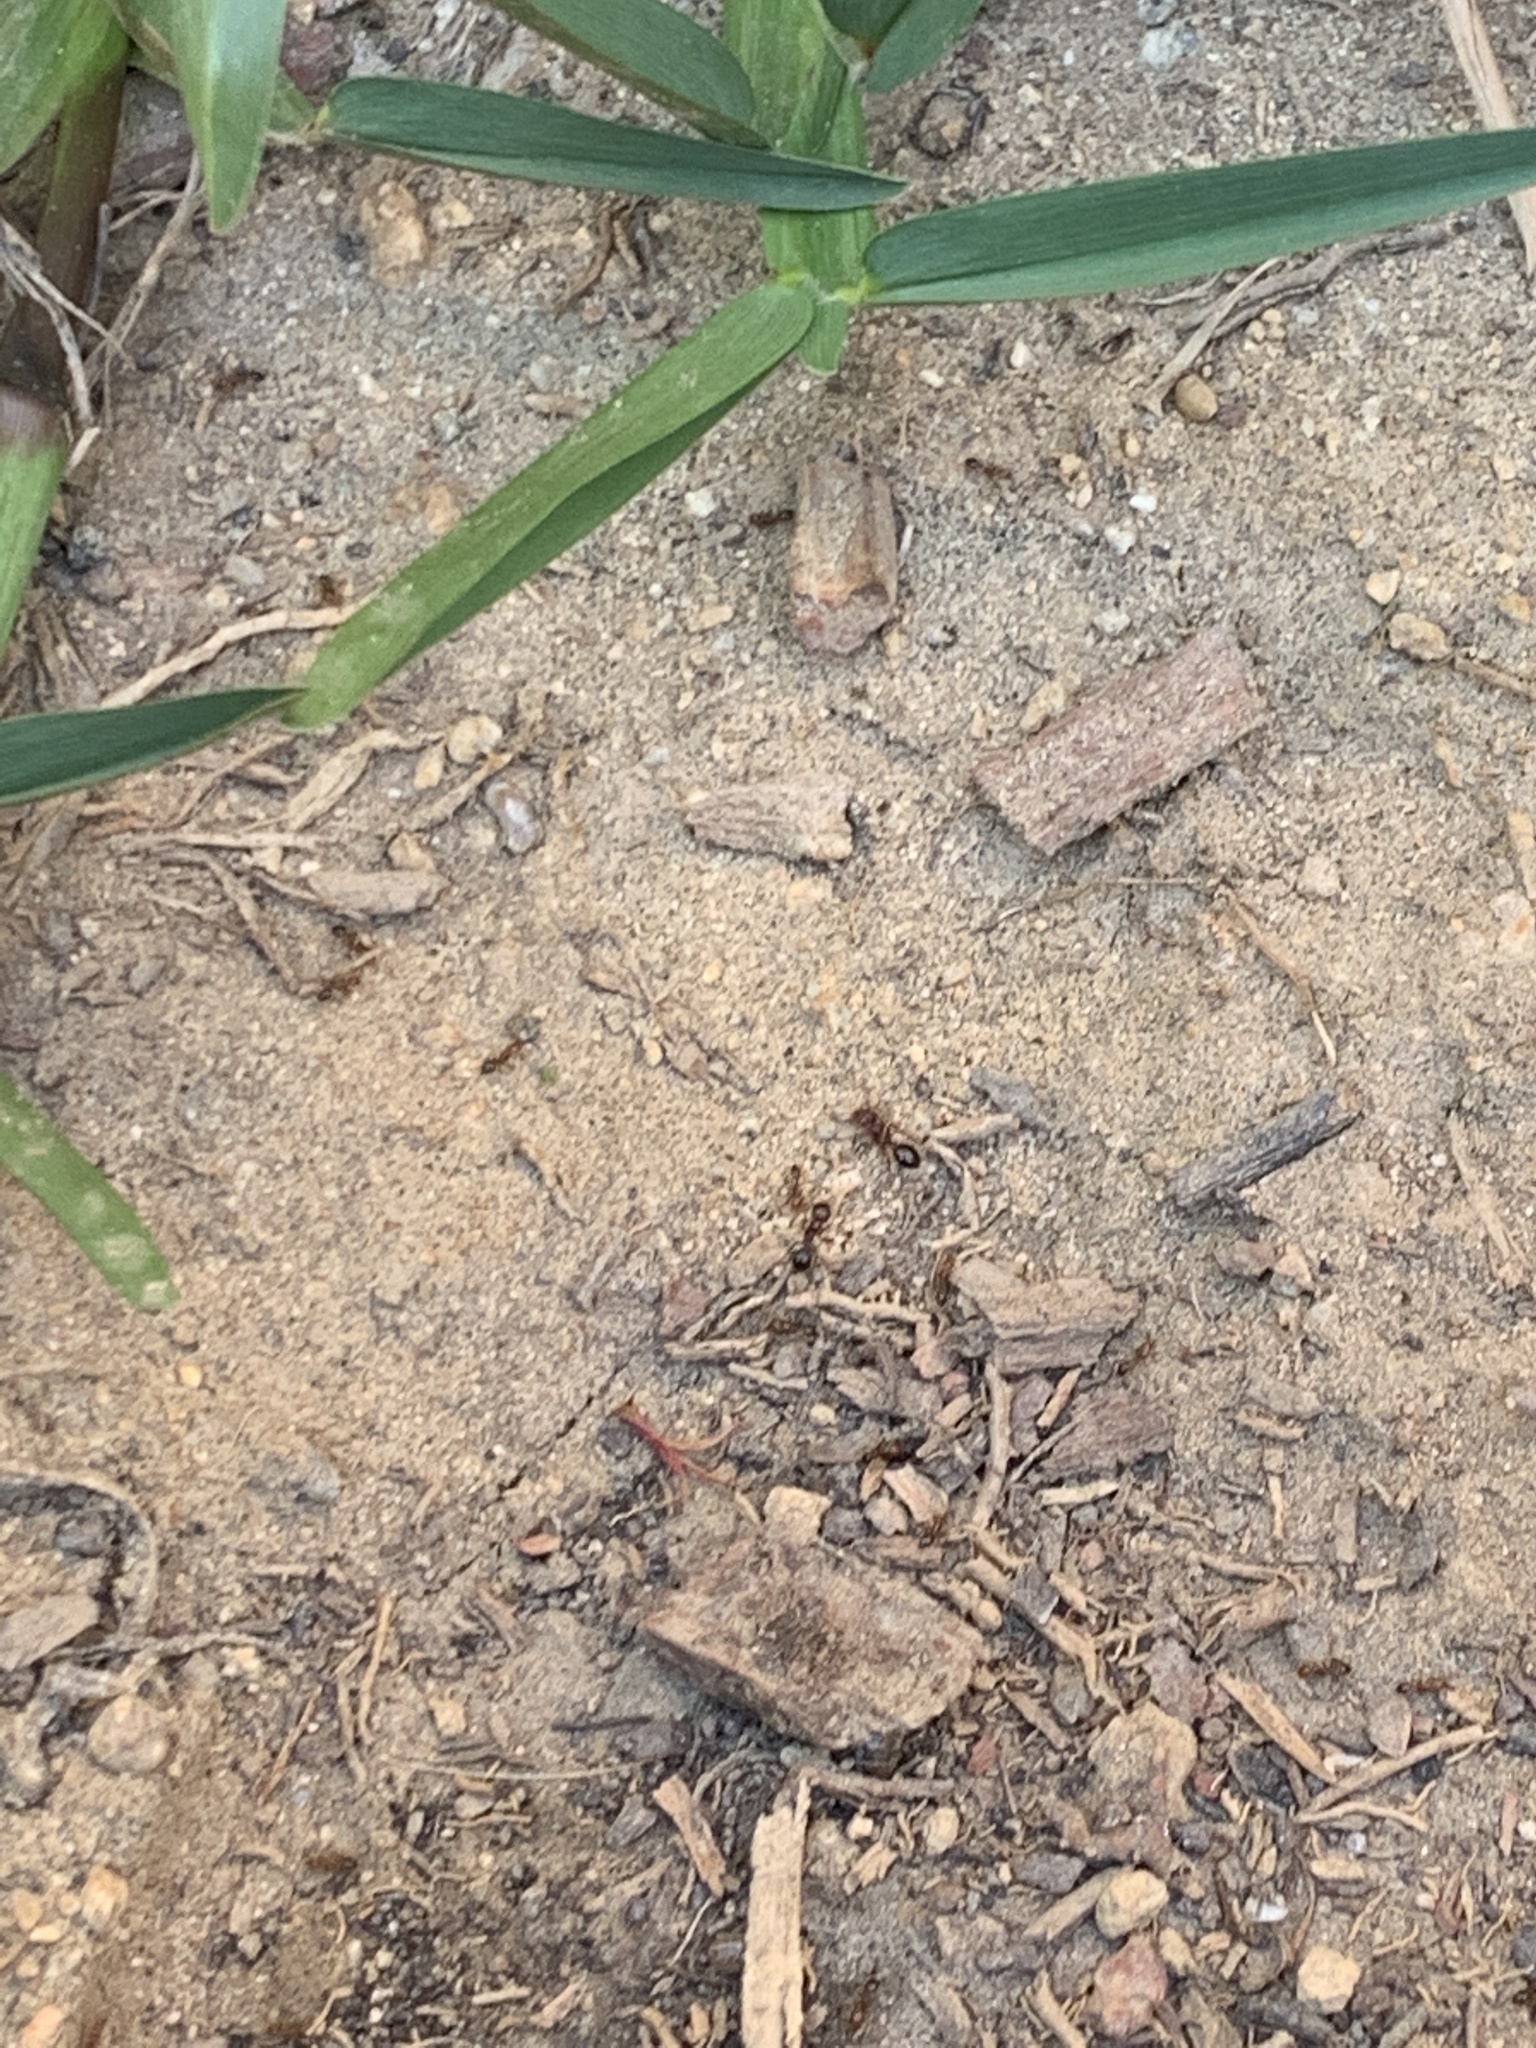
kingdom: Animalia
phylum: Arthropoda
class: Insecta
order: Hymenoptera
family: Formicidae
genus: Solenopsis
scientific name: Solenopsis invicta
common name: Red imported fire ant
